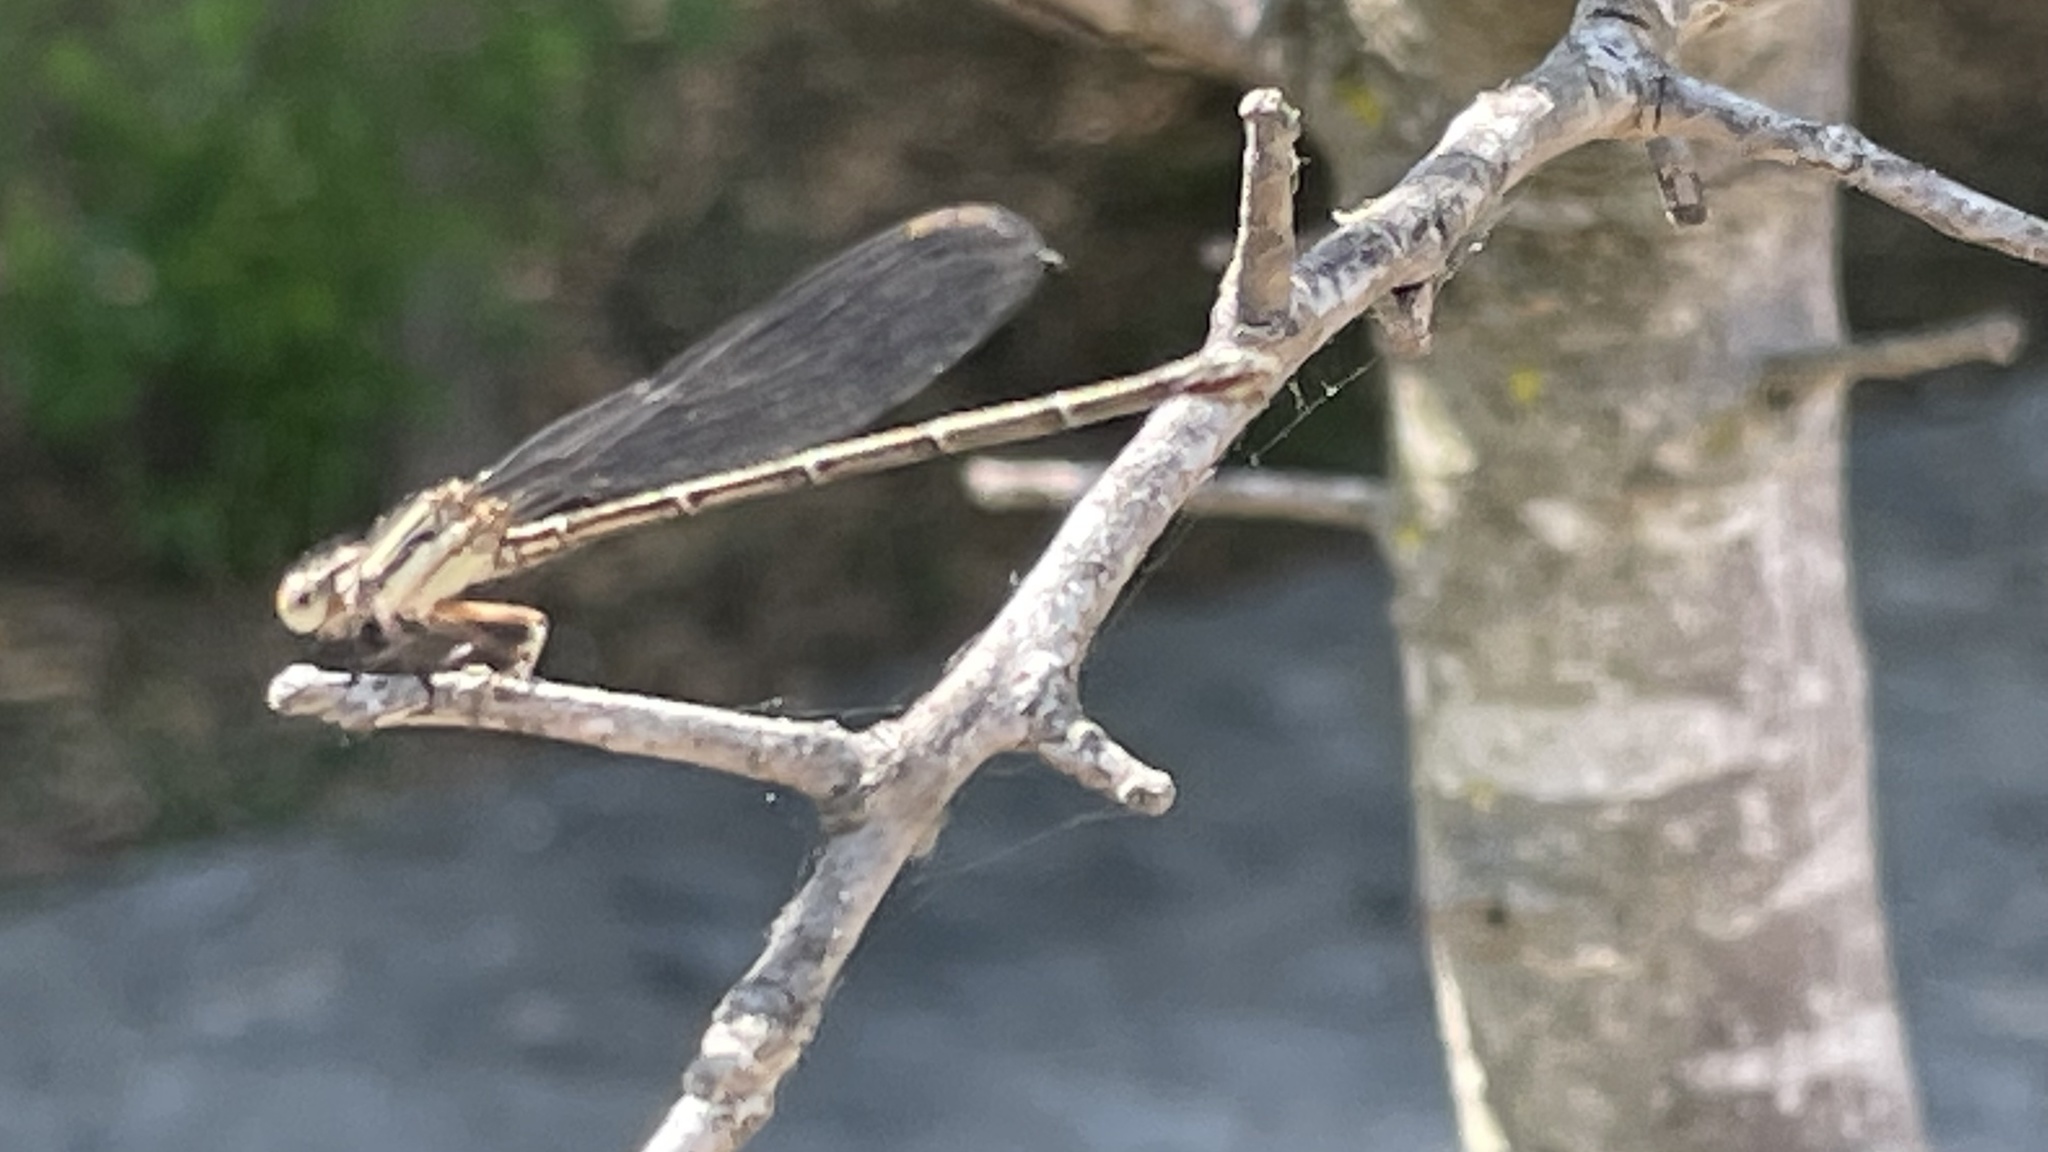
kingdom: Animalia
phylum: Arthropoda
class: Insecta
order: Odonata
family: Coenagrionidae
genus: Argia
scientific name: Argia translata
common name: Dusky dancer
